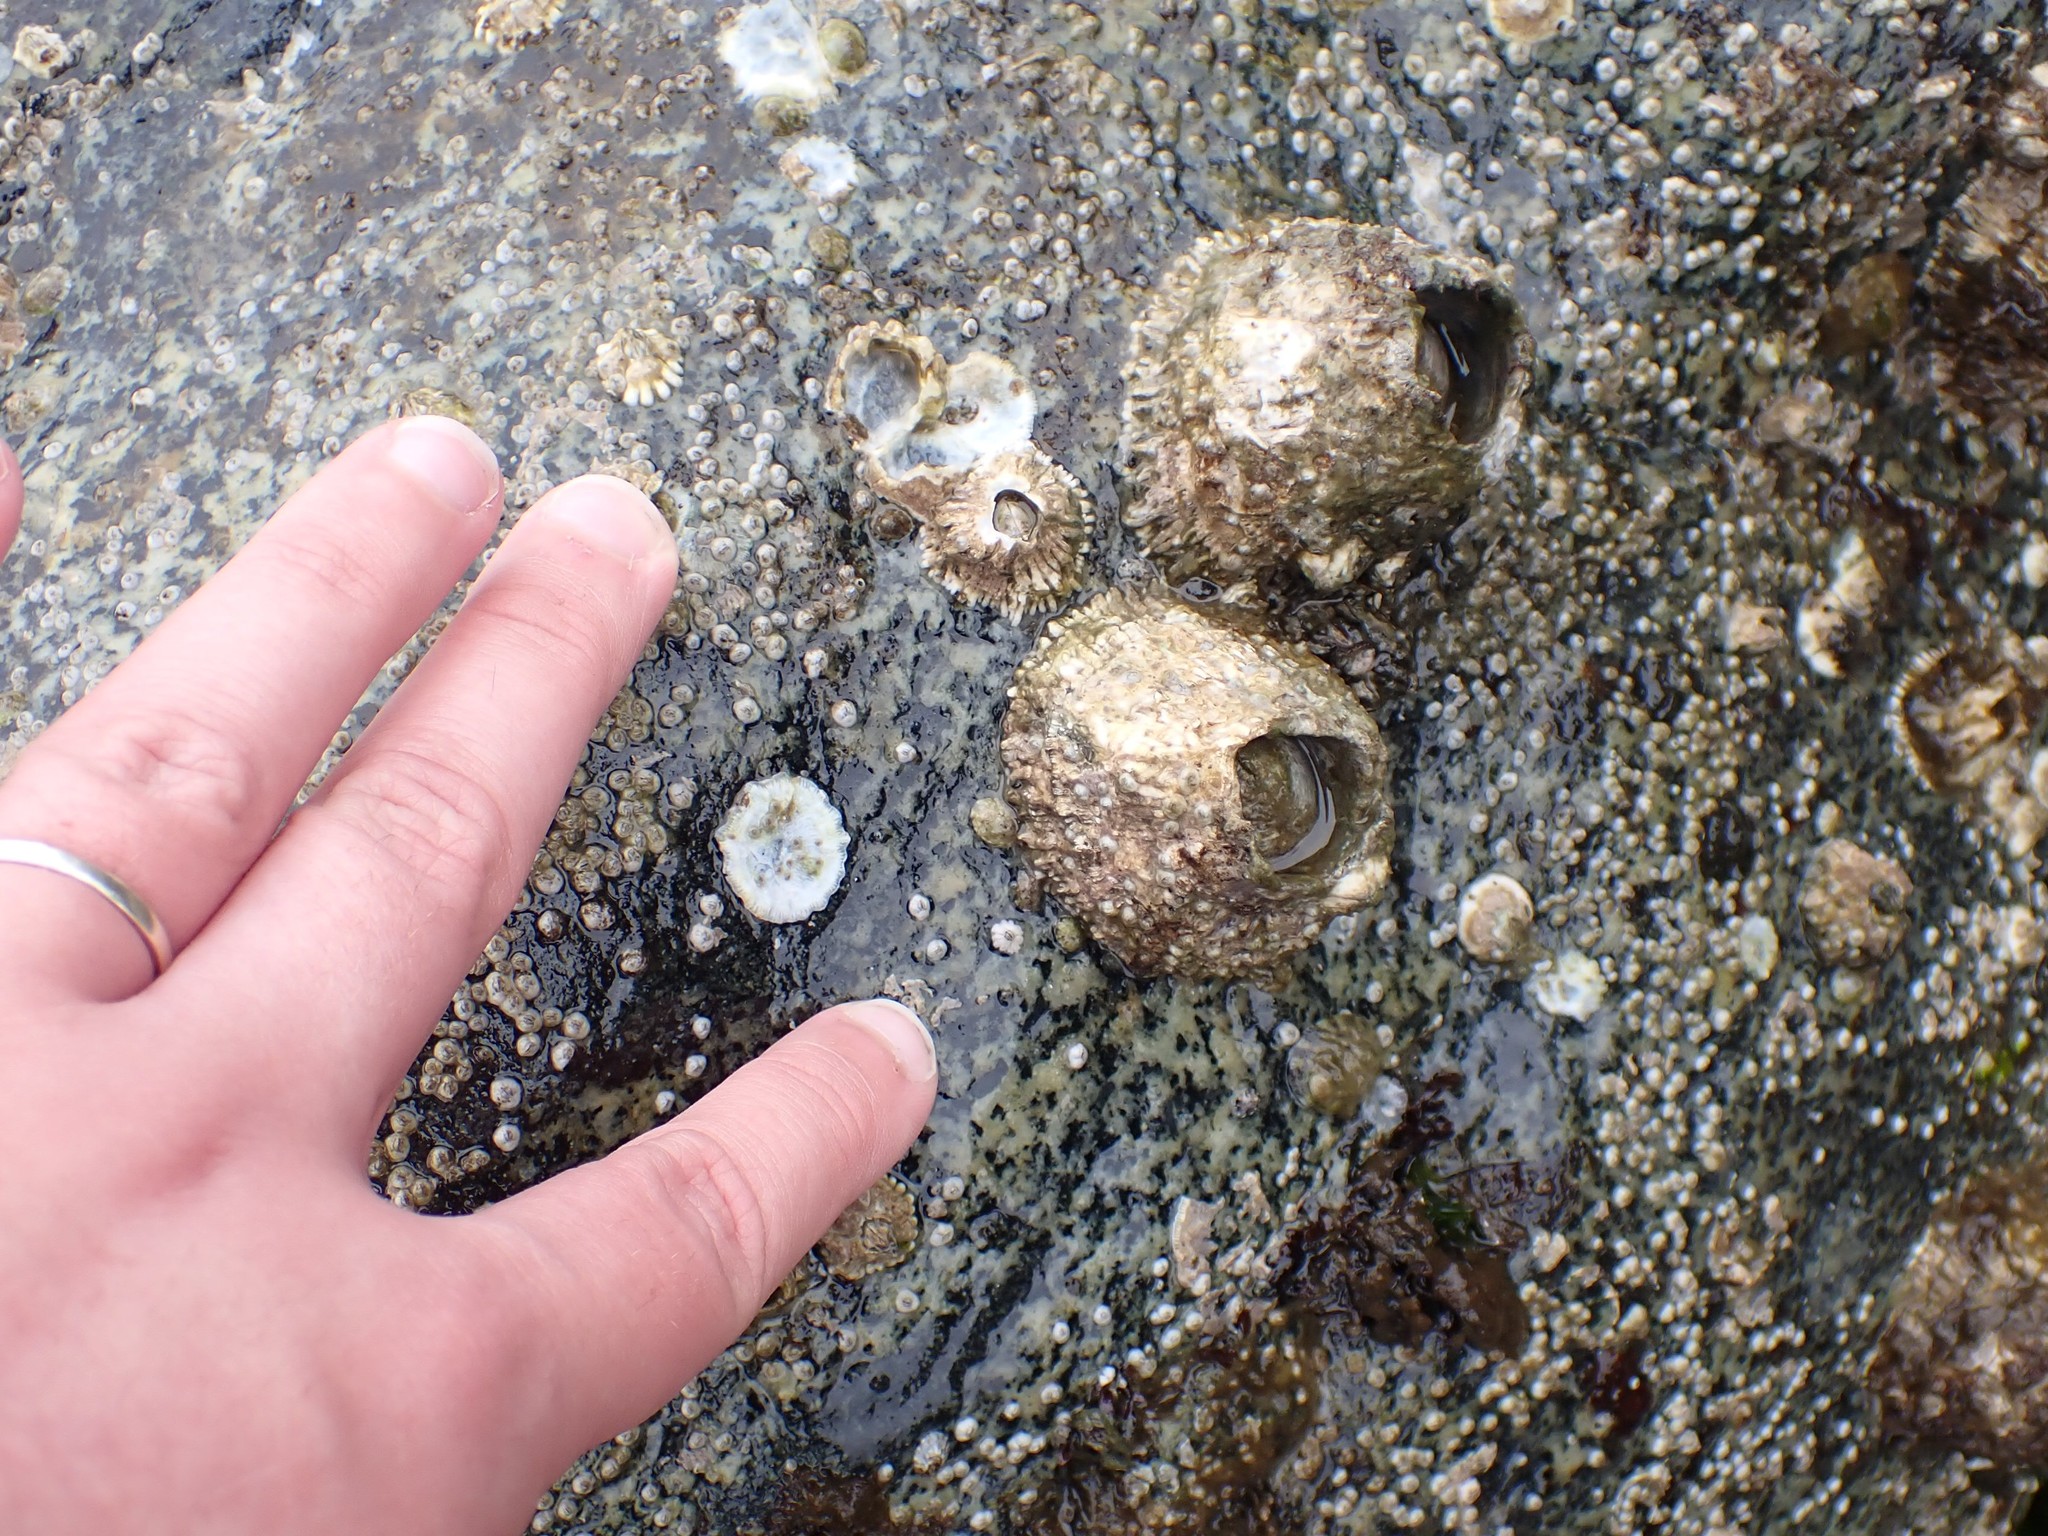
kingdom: Animalia
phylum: Arthropoda
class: Maxillopoda
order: Sessilia
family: Archaeobalanidae
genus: Semibalanus
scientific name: Semibalanus cariosus
